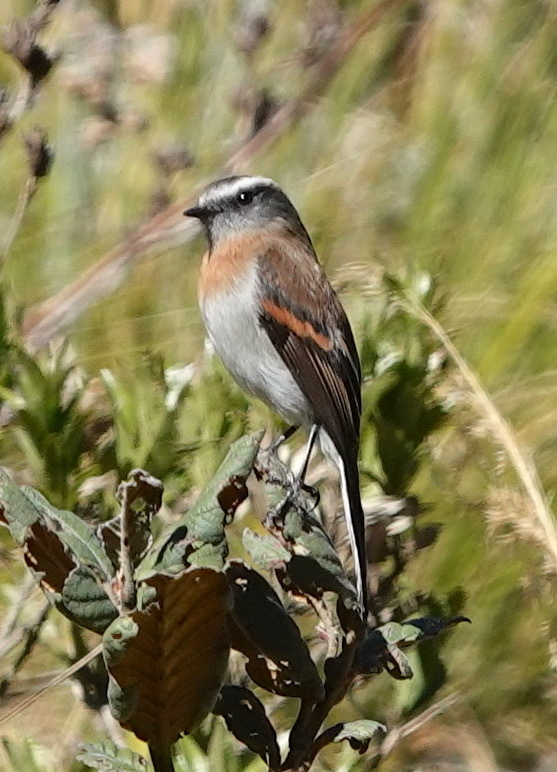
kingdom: Animalia
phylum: Chordata
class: Aves
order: Passeriformes
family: Tyrannidae
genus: Ochthoeca
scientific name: Ochthoeca rufipectoralis
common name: Rufous-breasted chat-tyrant
